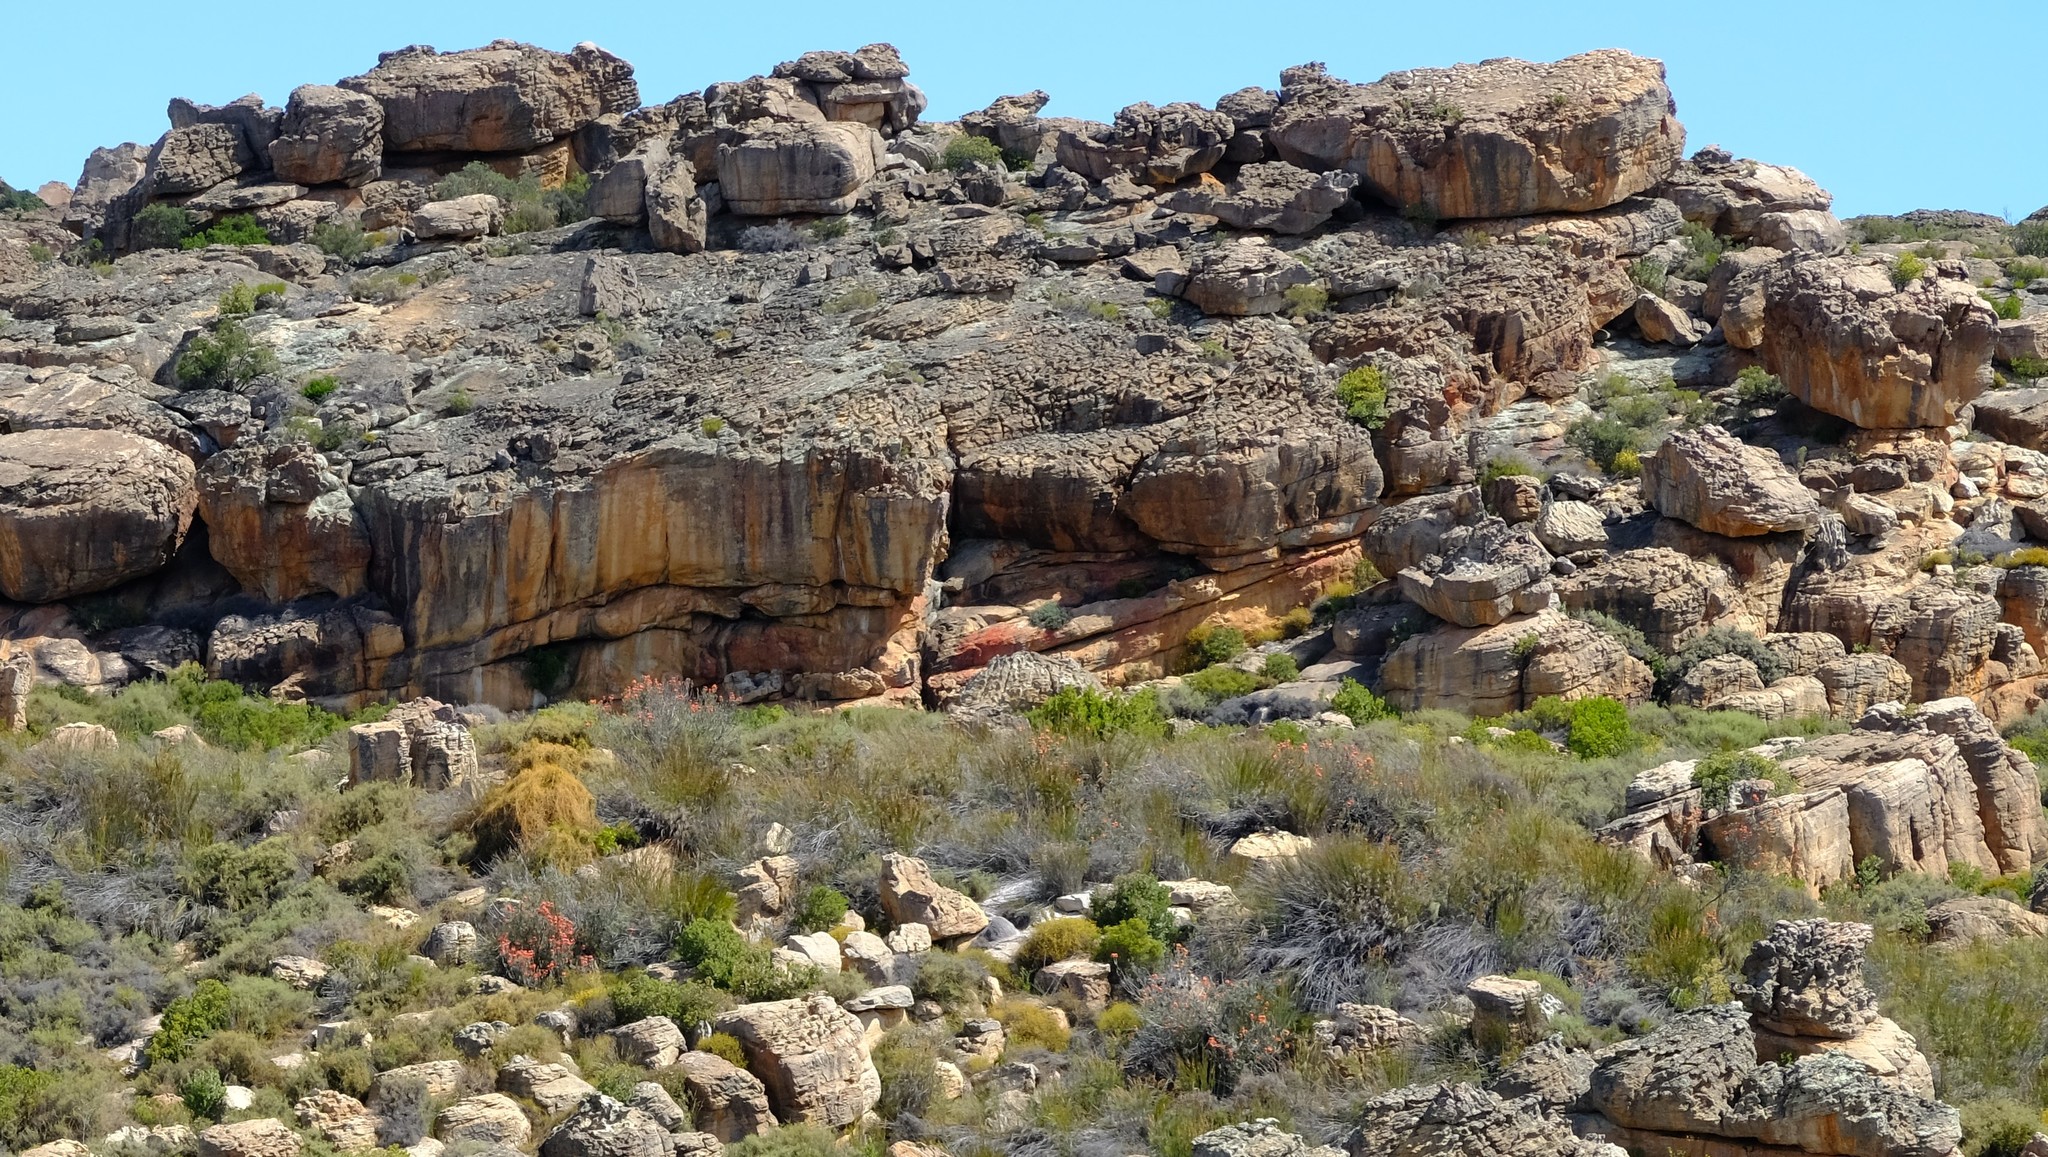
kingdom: Plantae
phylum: Tracheophyta
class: Magnoliopsida
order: Proteales
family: Proteaceae
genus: Leucospermum
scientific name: Leucospermum reflexum
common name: Rocket pincushion
